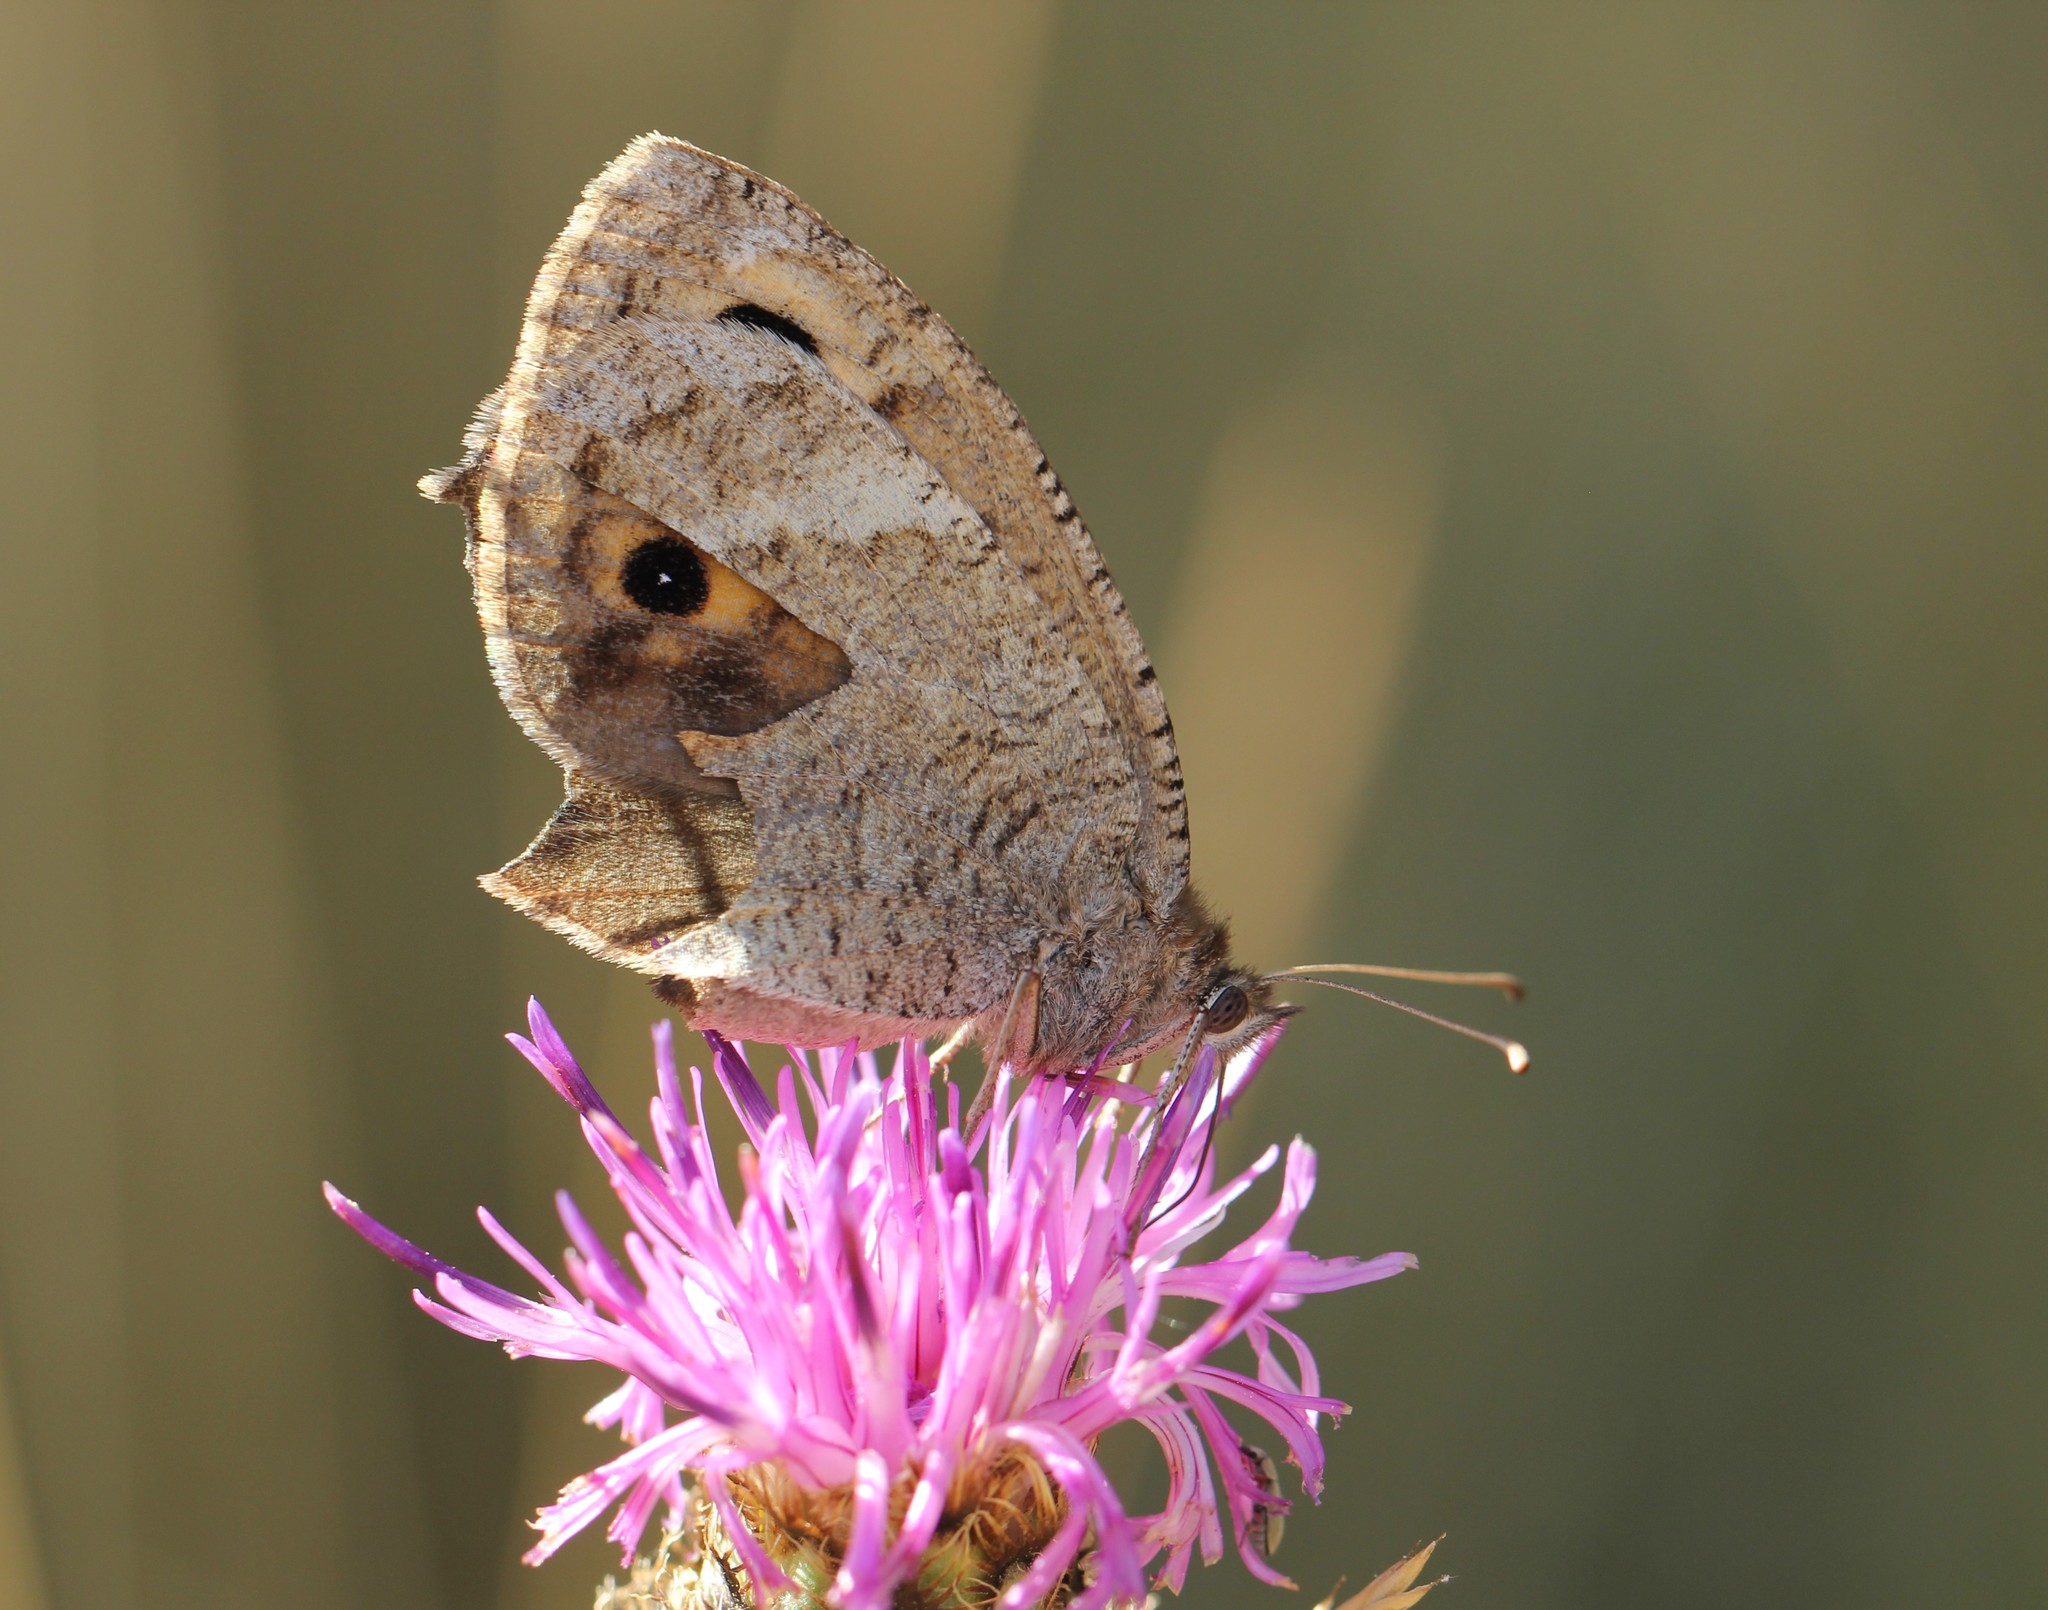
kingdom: Animalia
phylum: Arthropoda
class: Insecta
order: Lepidoptera
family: Nymphalidae
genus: Satyrus
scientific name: Satyrus ferula
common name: Great sooty satyr
